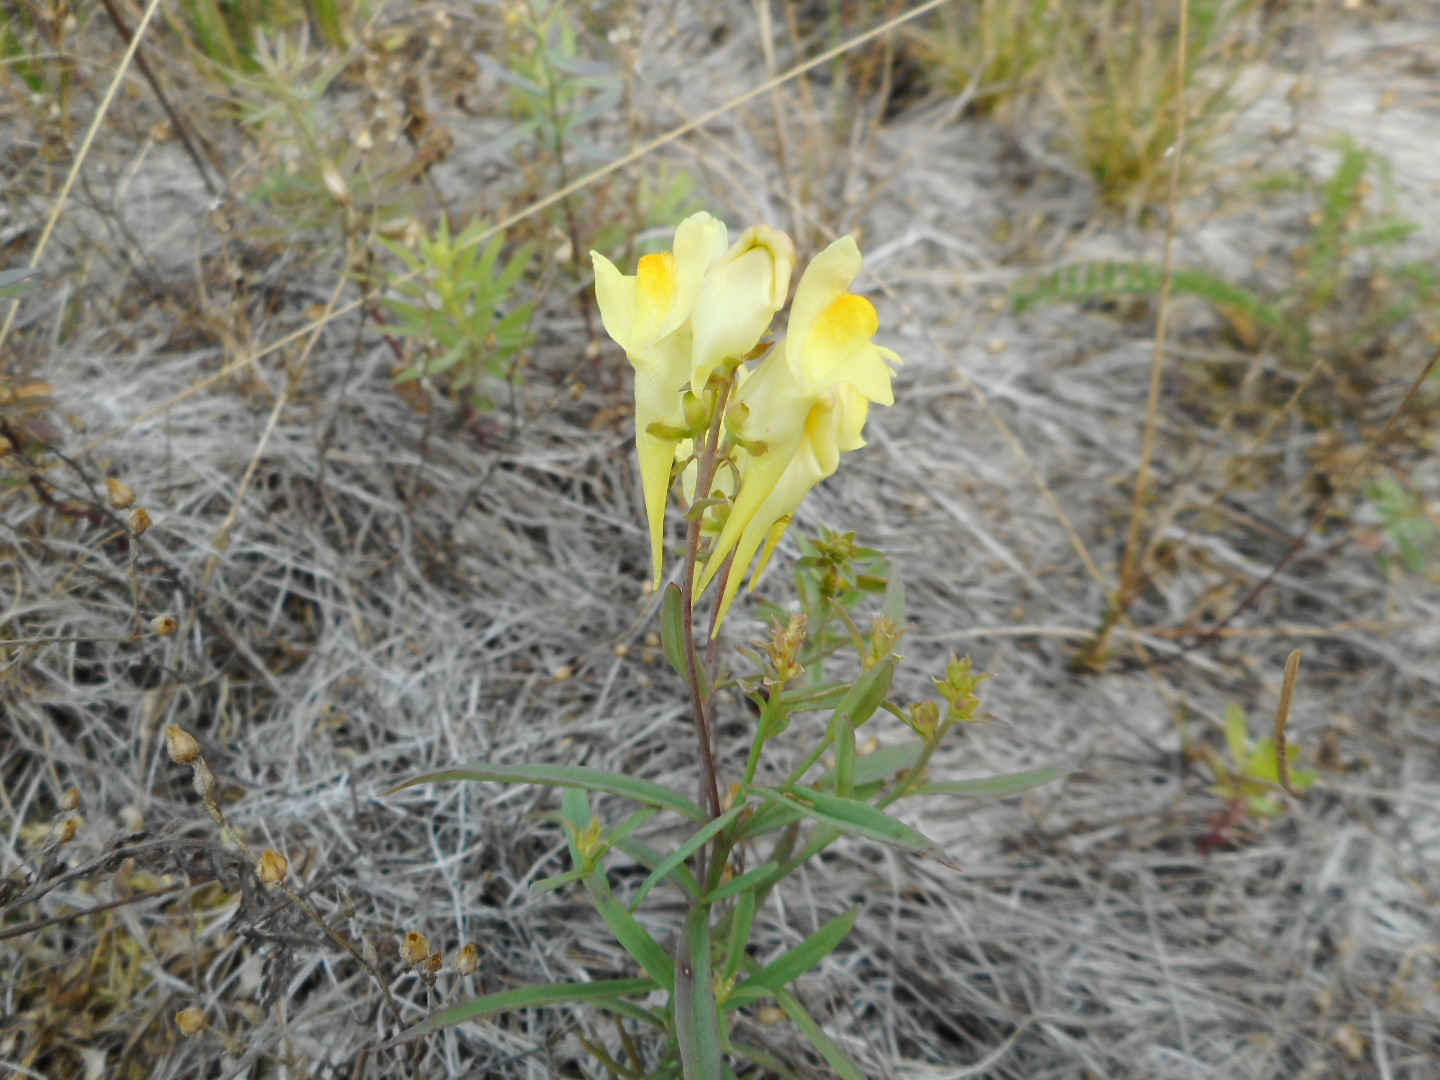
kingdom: Plantae
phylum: Tracheophyta
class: Magnoliopsida
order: Lamiales
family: Plantaginaceae
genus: Linaria
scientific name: Linaria vulgaris
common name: Butter and eggs
